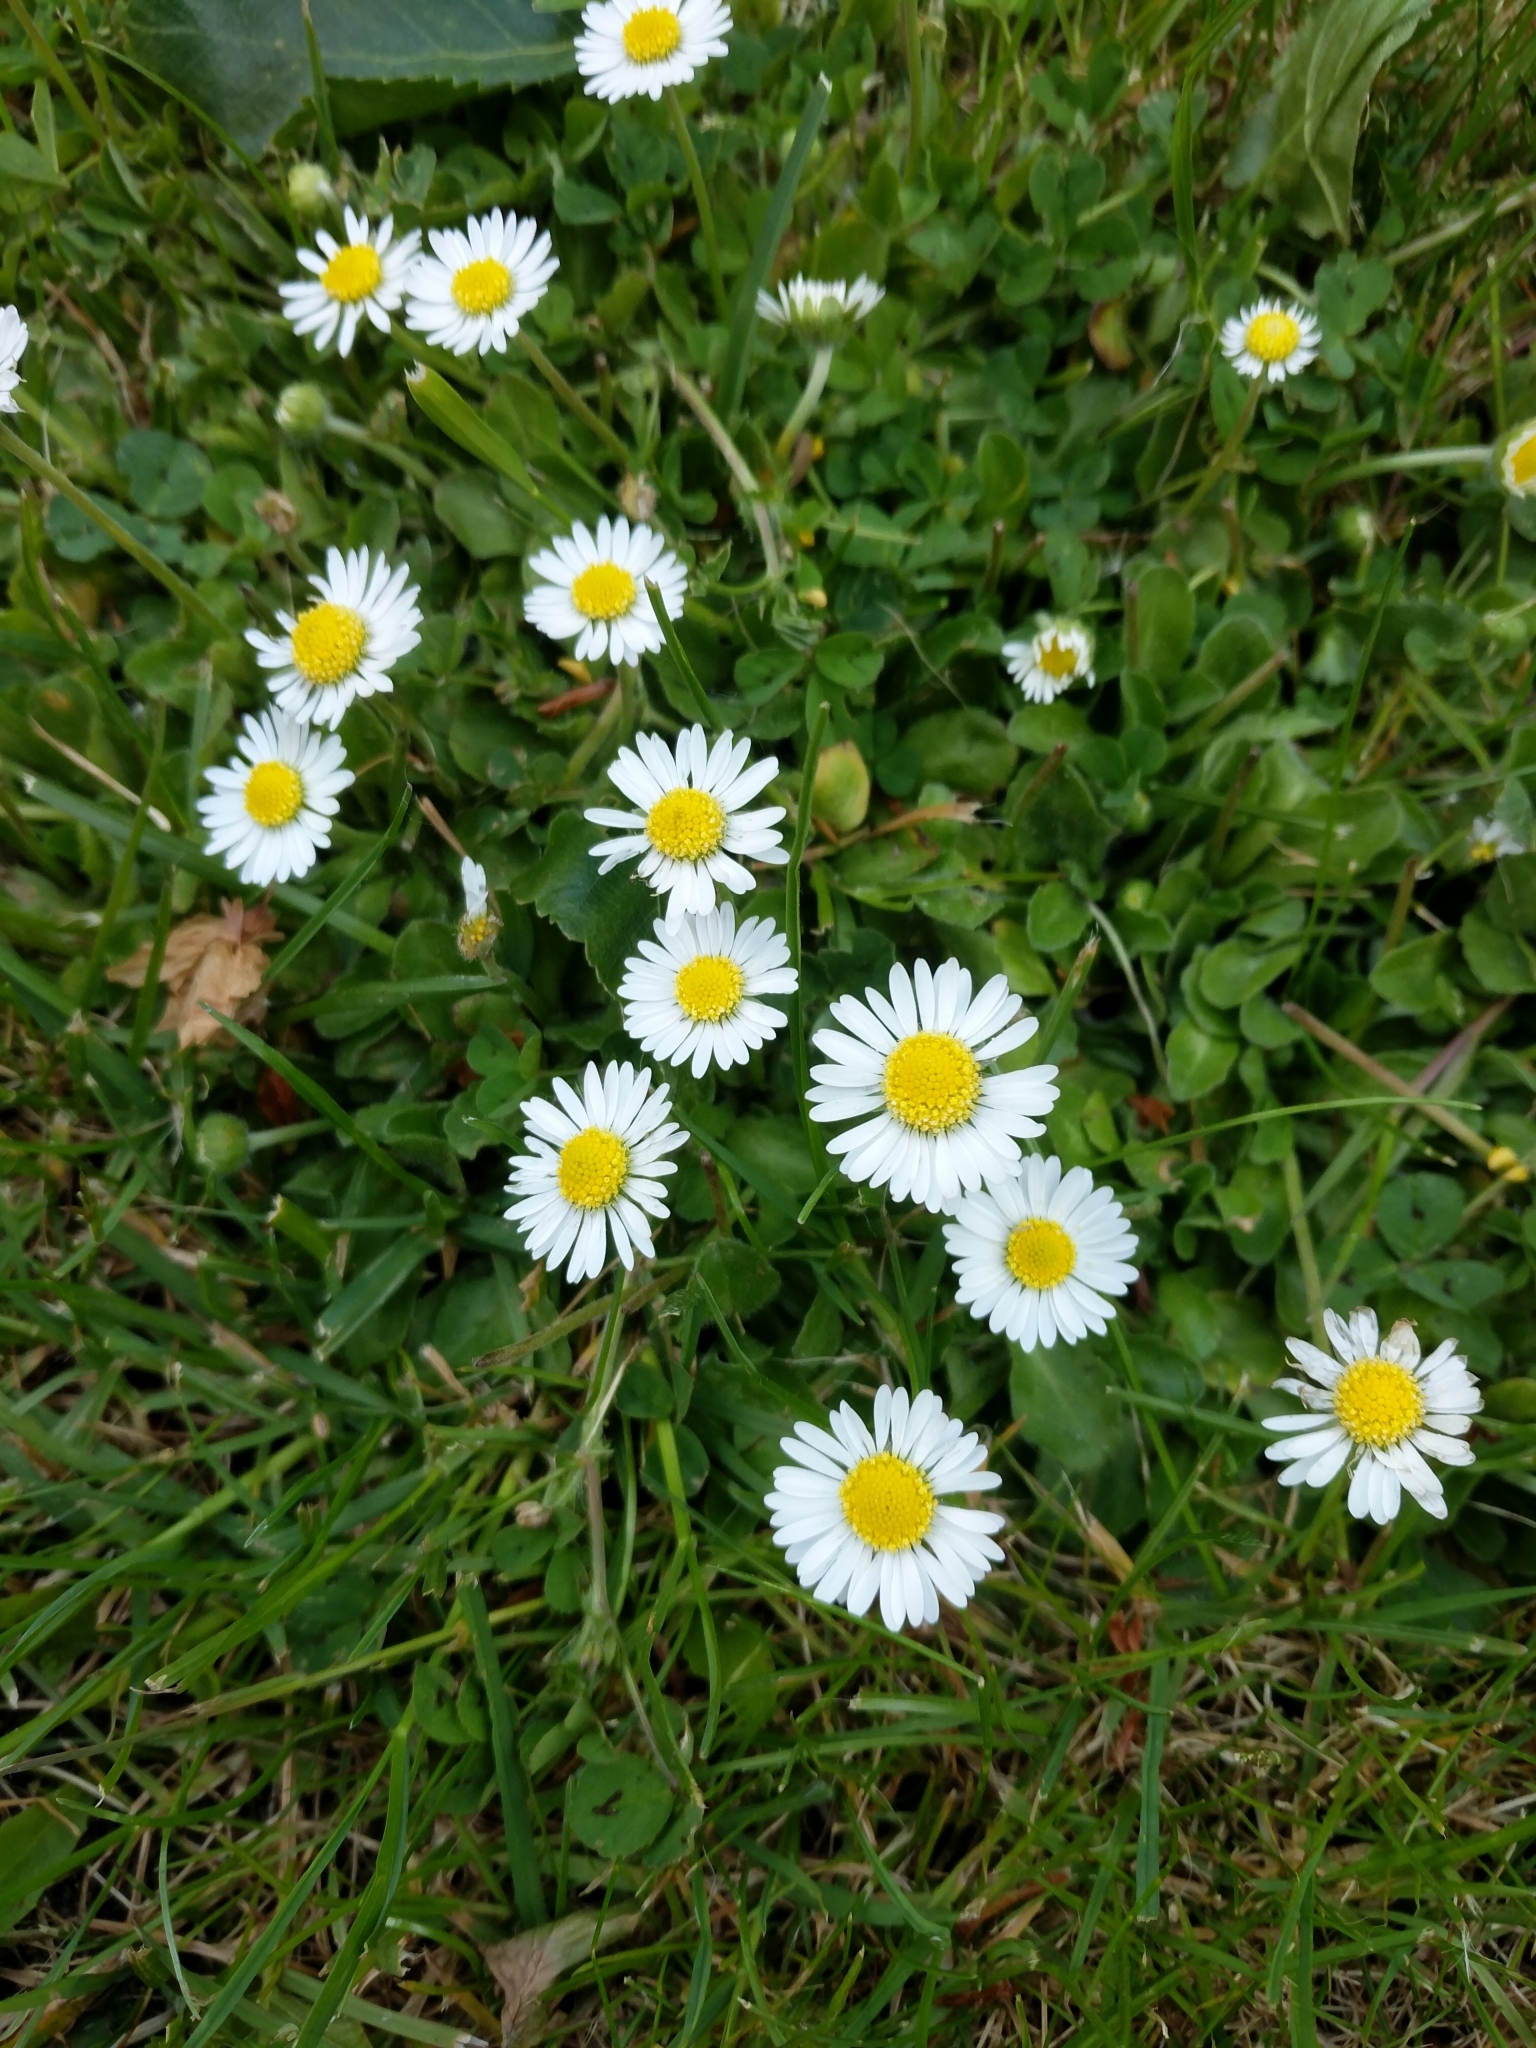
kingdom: Plantae
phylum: Tracheophyta
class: Magnoliopsida
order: Asterales
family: Asteraceae
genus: Bellis
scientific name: Bellis perennis
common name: Lawndaisy
